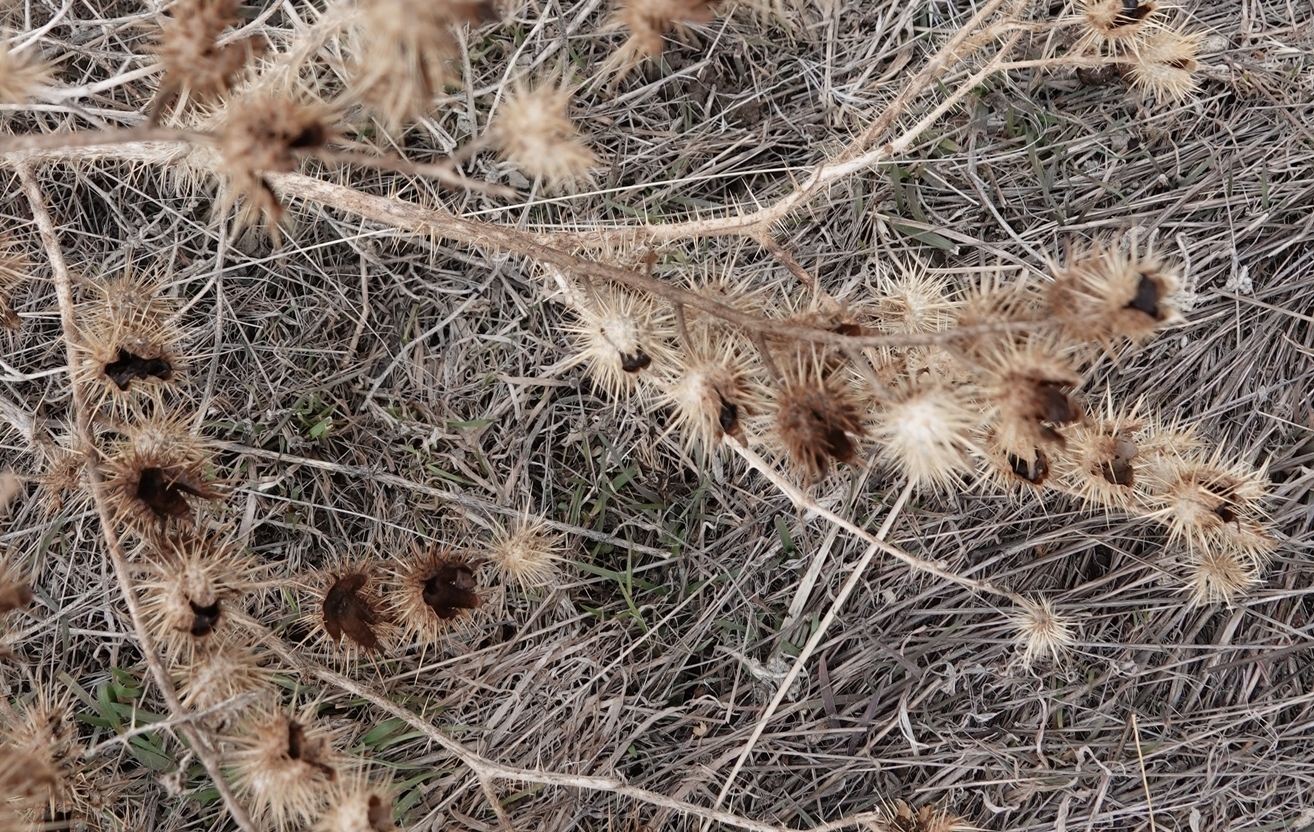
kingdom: Plantae
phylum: Tracheophyta
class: Magnoliopsida
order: Solanales
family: Solanaceae
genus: Solanum
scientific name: Solanum angustifolium
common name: Buffalobur nightshade
